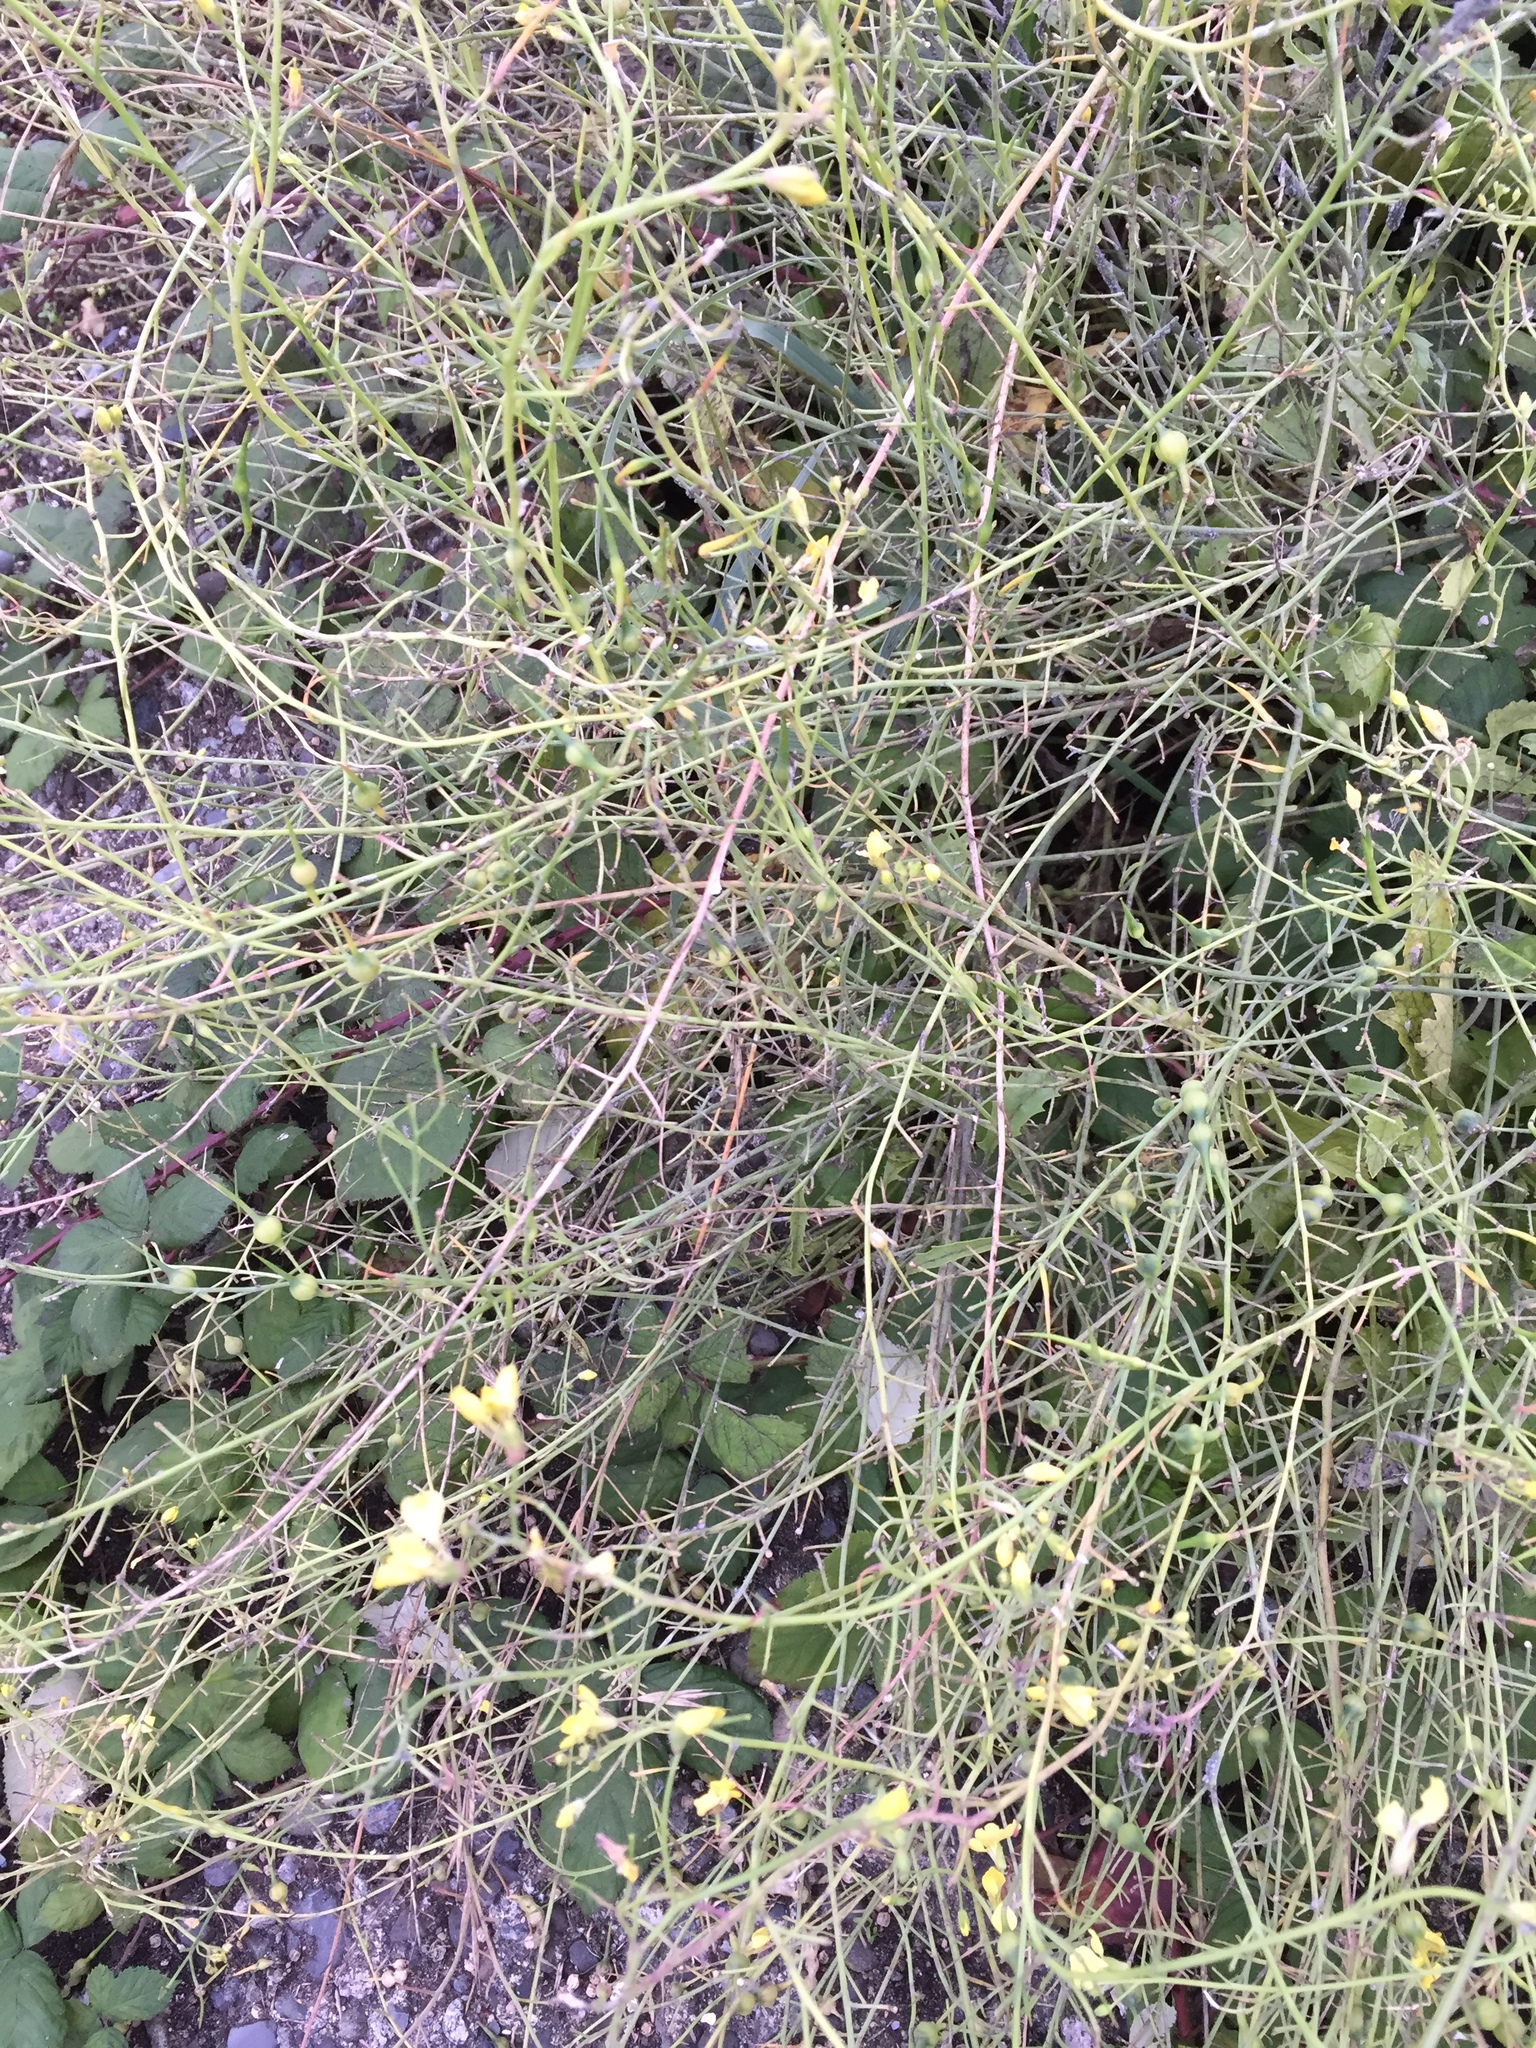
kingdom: Plantae
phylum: Tracheophyta
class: Magnoliopsida
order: Brassicales
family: Brassicaceae
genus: Raphanus
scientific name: Raphanus raphanistrum
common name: Wild radish
